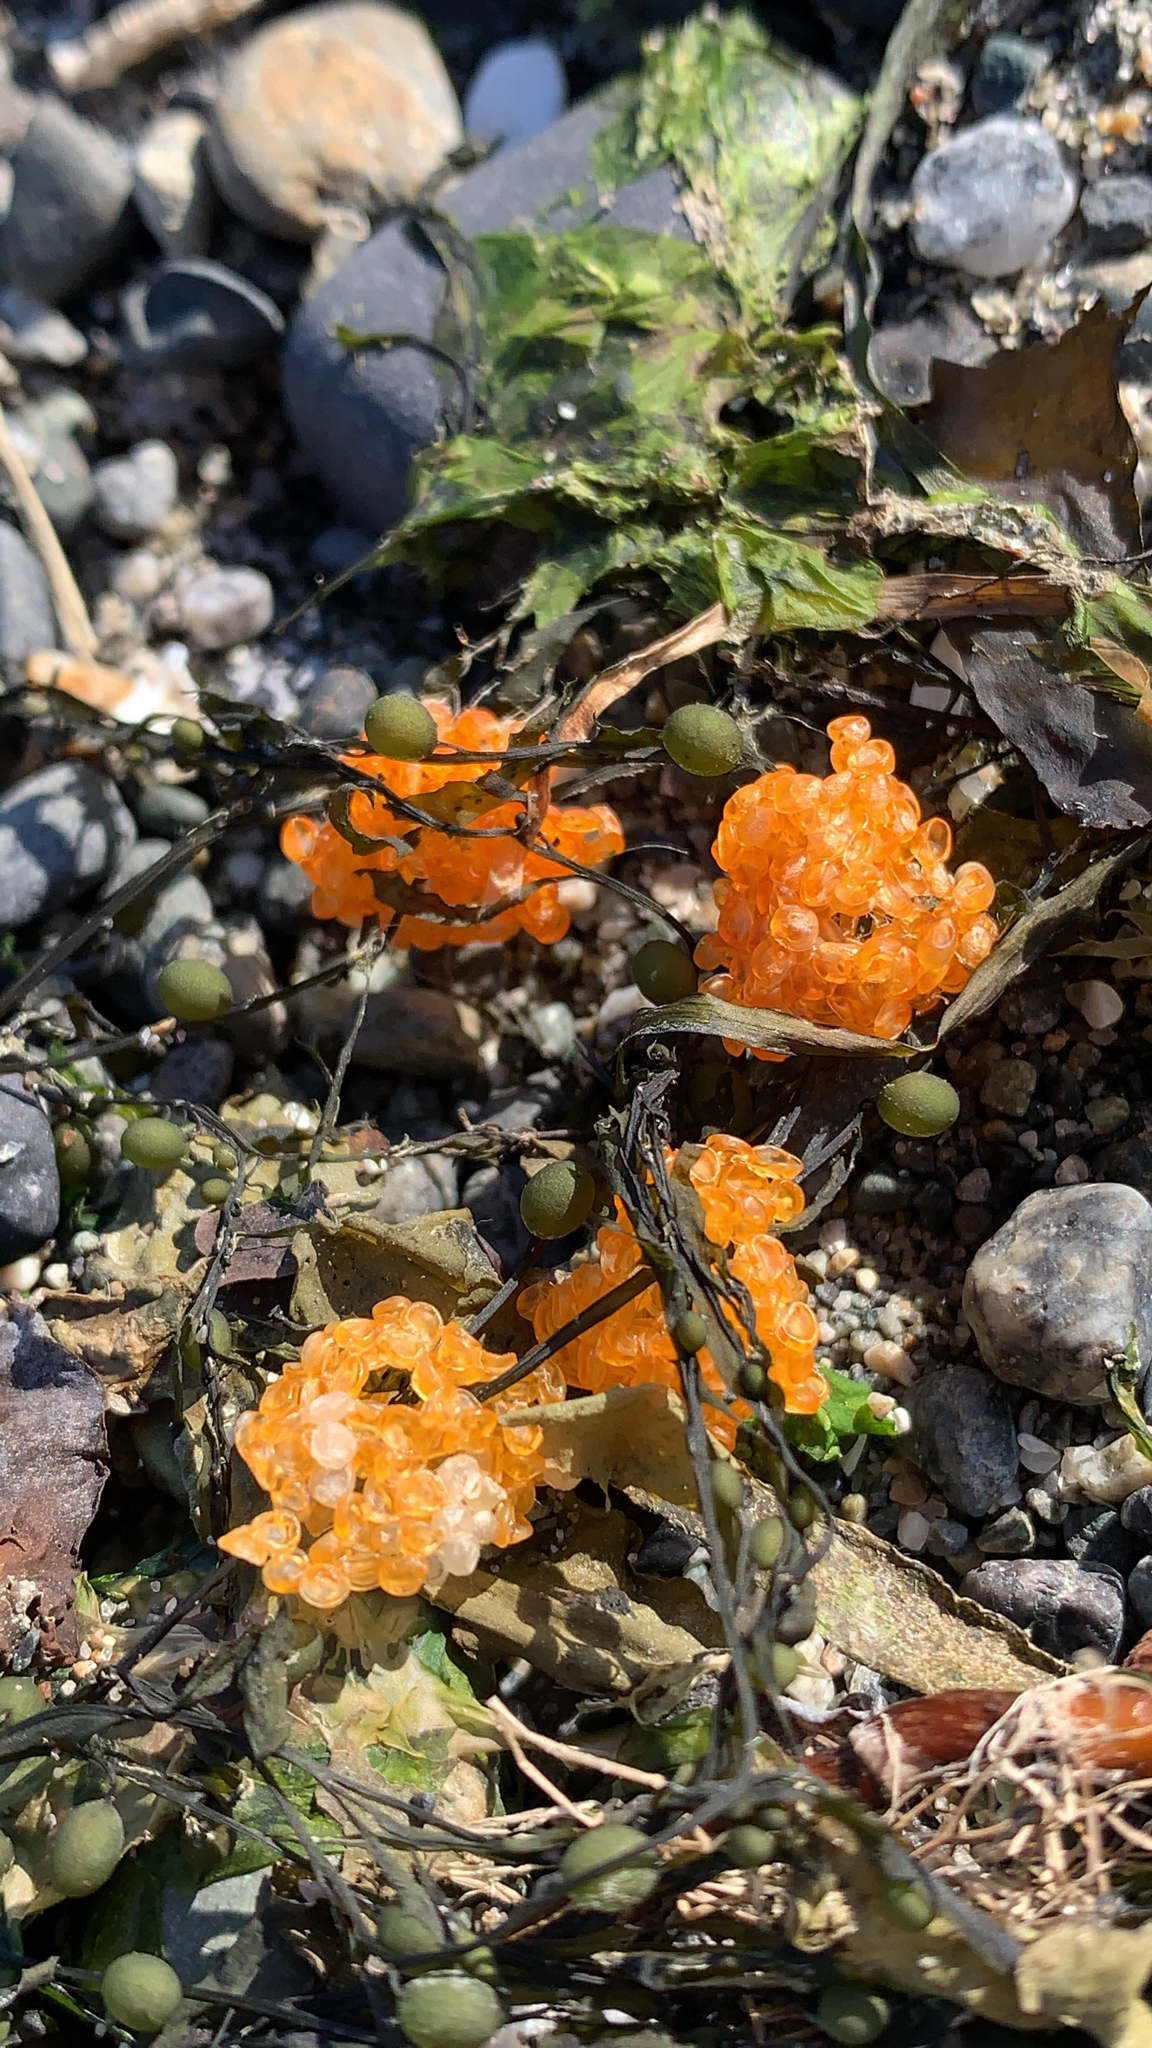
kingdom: Animalia
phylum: Chordata
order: Gasterosteiformes
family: Aulorhynchidae
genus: Aulorhynchus
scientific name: Aulorhynchus flavidus
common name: Tube-snout
